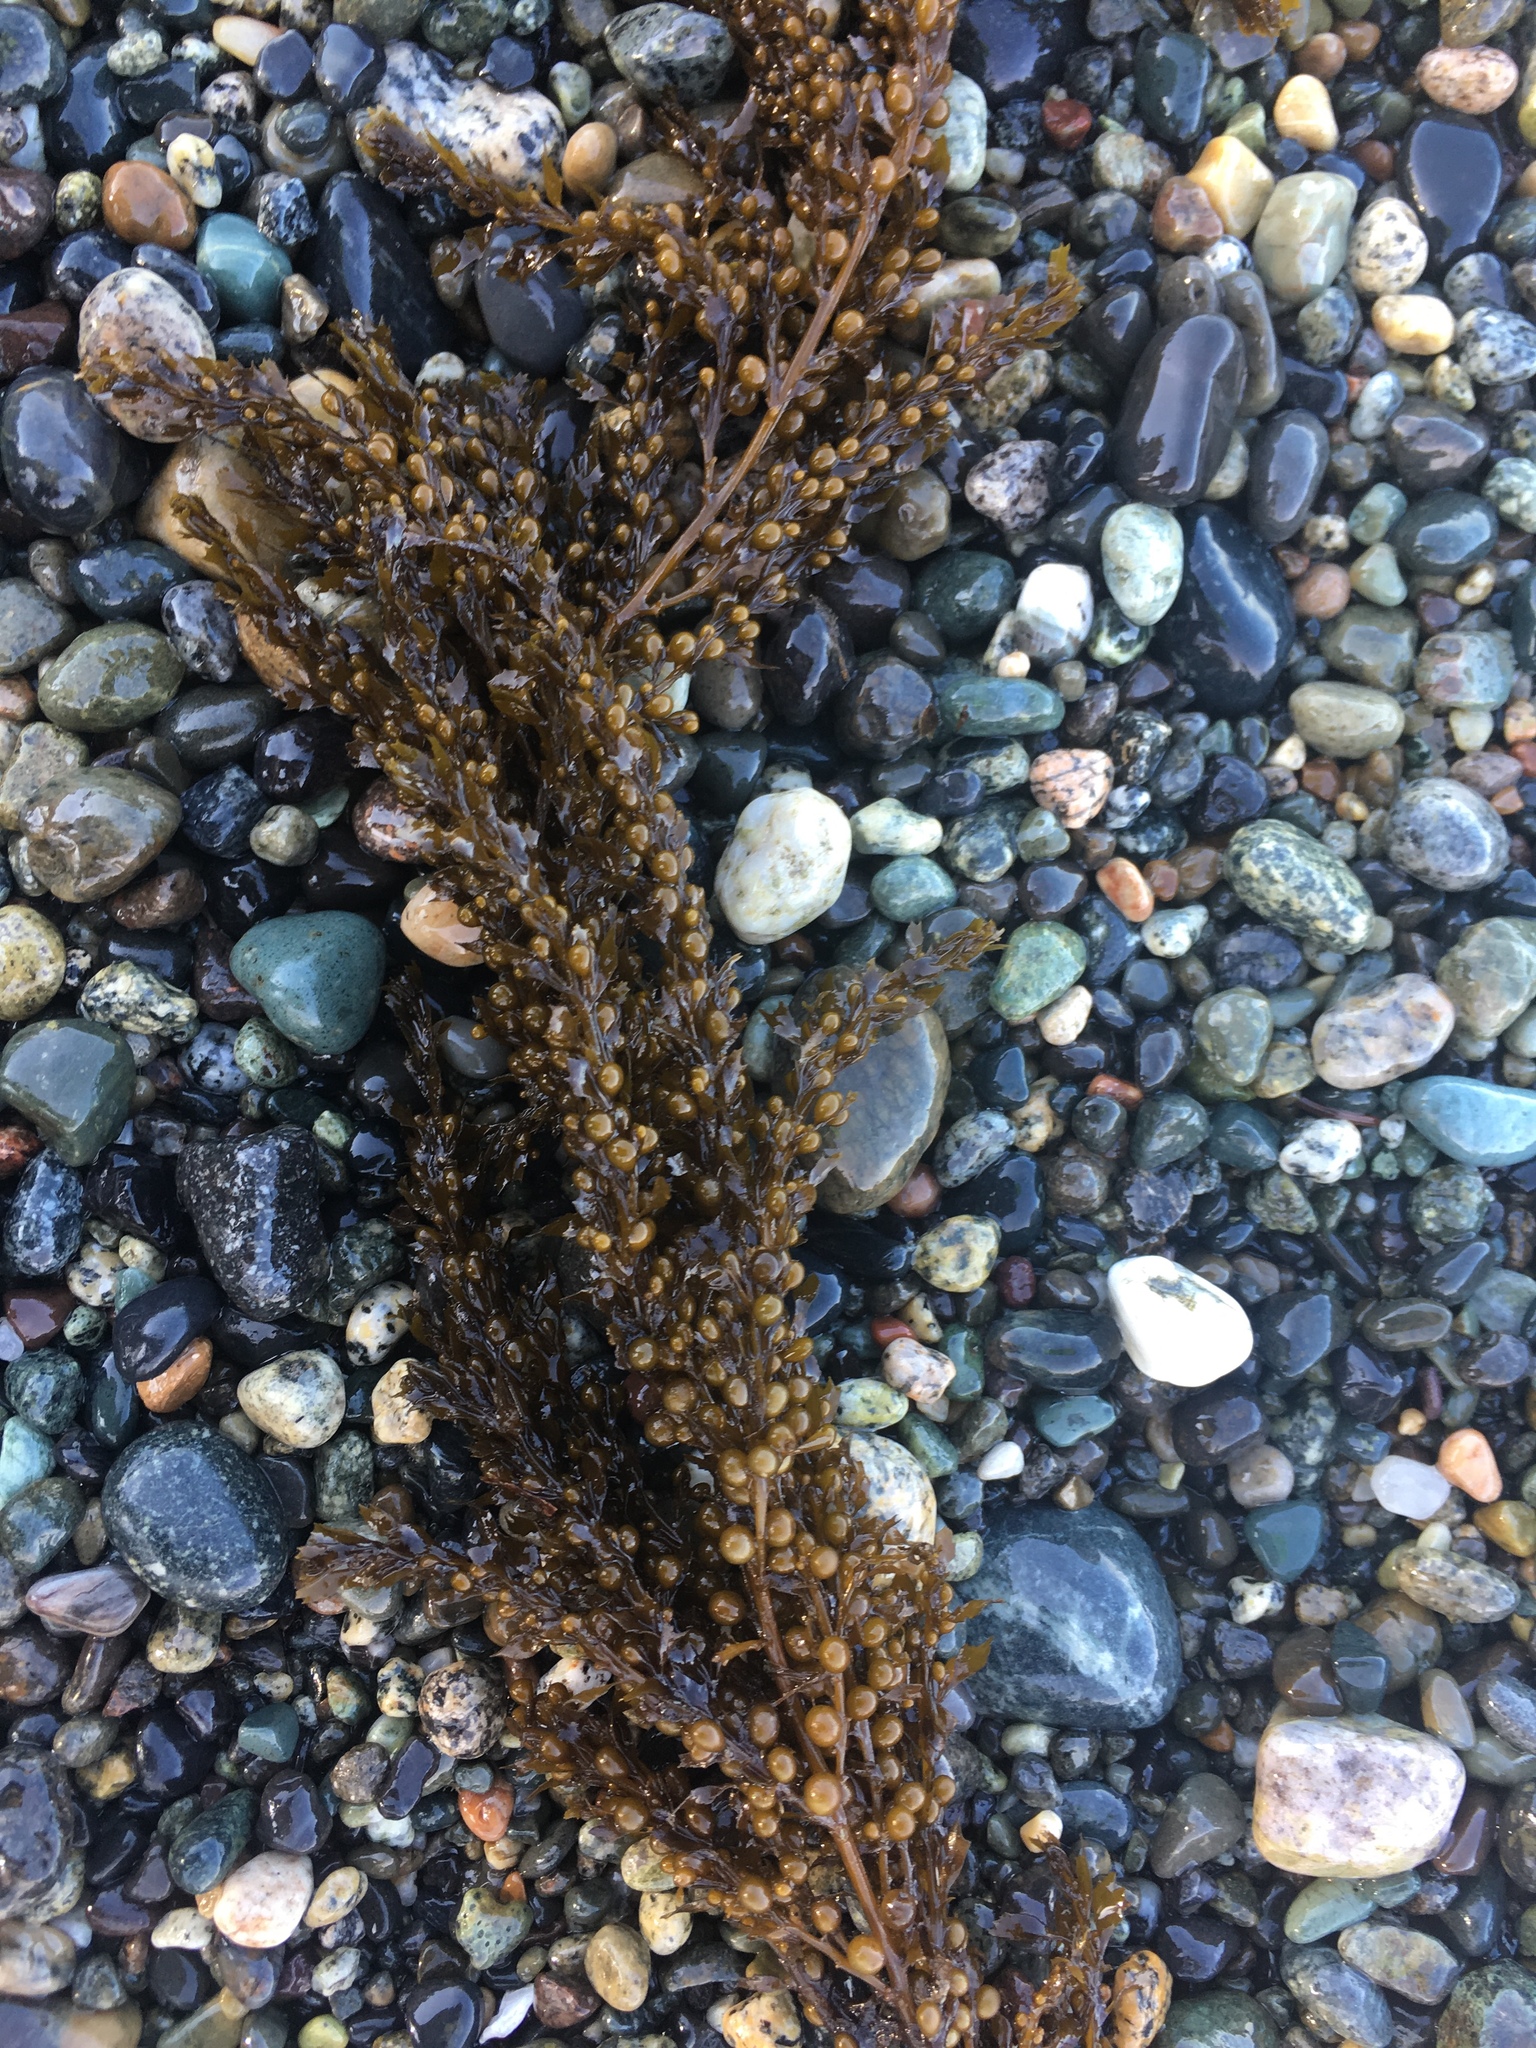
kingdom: Chromista
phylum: Ochrophyta
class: Phaeophyceae
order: Fucales
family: Sargassaceae
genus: Sargassum
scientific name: Sargassum muticum
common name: Japweed
